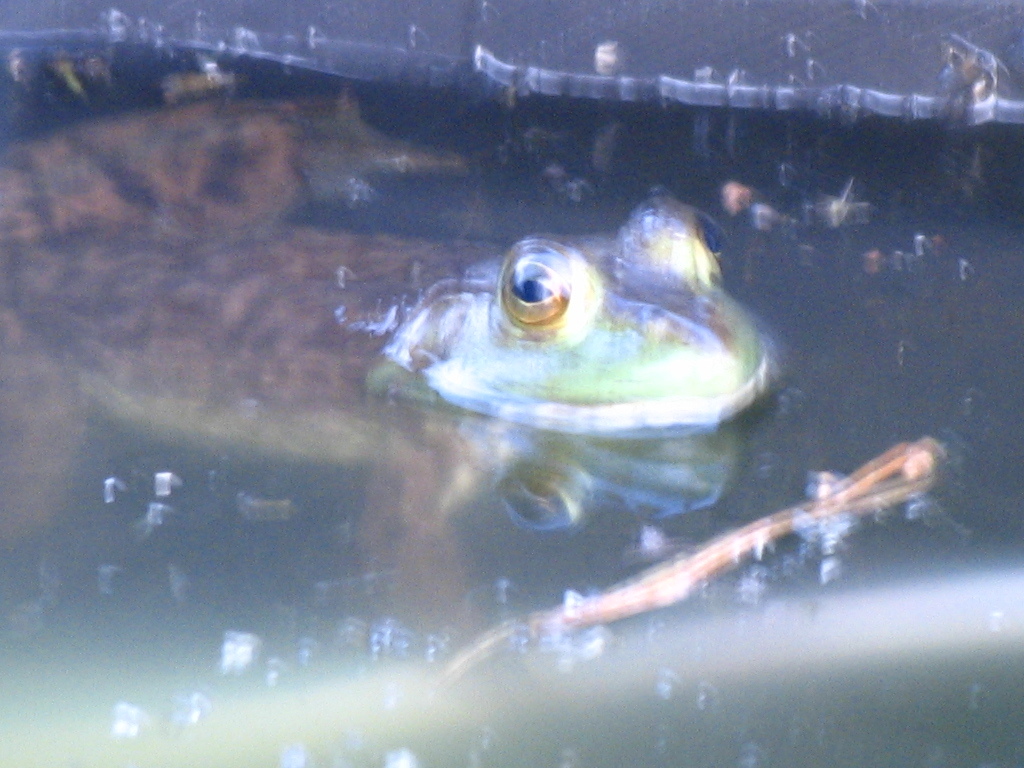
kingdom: Animalia
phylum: Chordata
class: Amphibia
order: Anura
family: Ranidae
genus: Lithobates
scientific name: Lithobates catesbeianus
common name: American bullfrog
